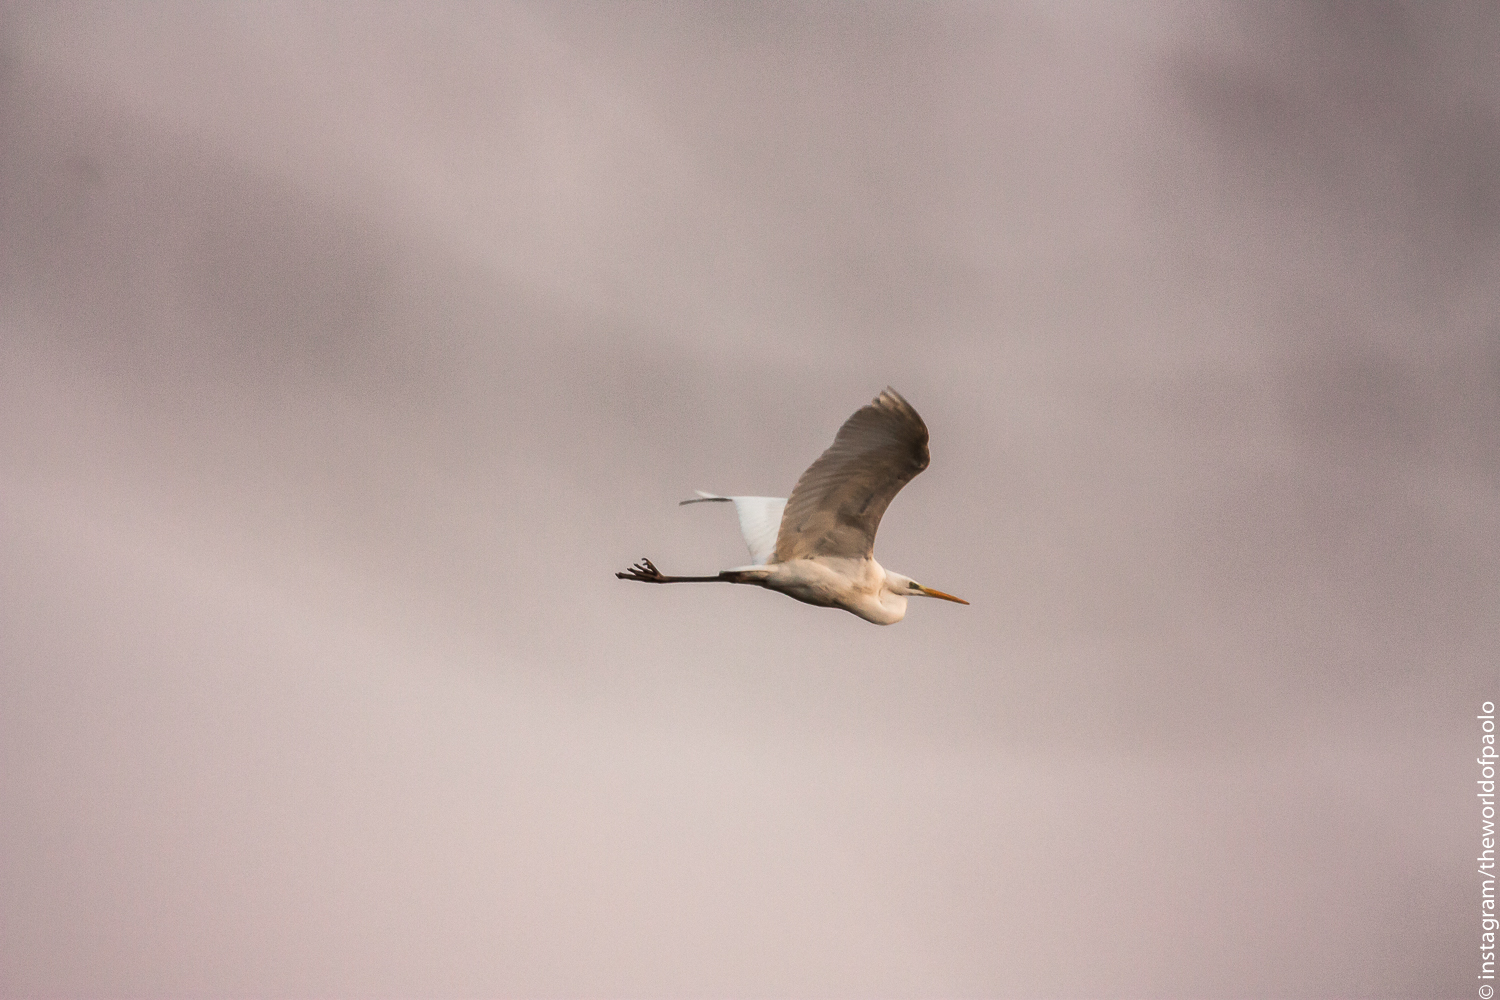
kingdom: Animalia
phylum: Chordata
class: Aves
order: Pelecaniformes
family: Ardeidae
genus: Ardea
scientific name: Ardea alba
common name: Great egret
